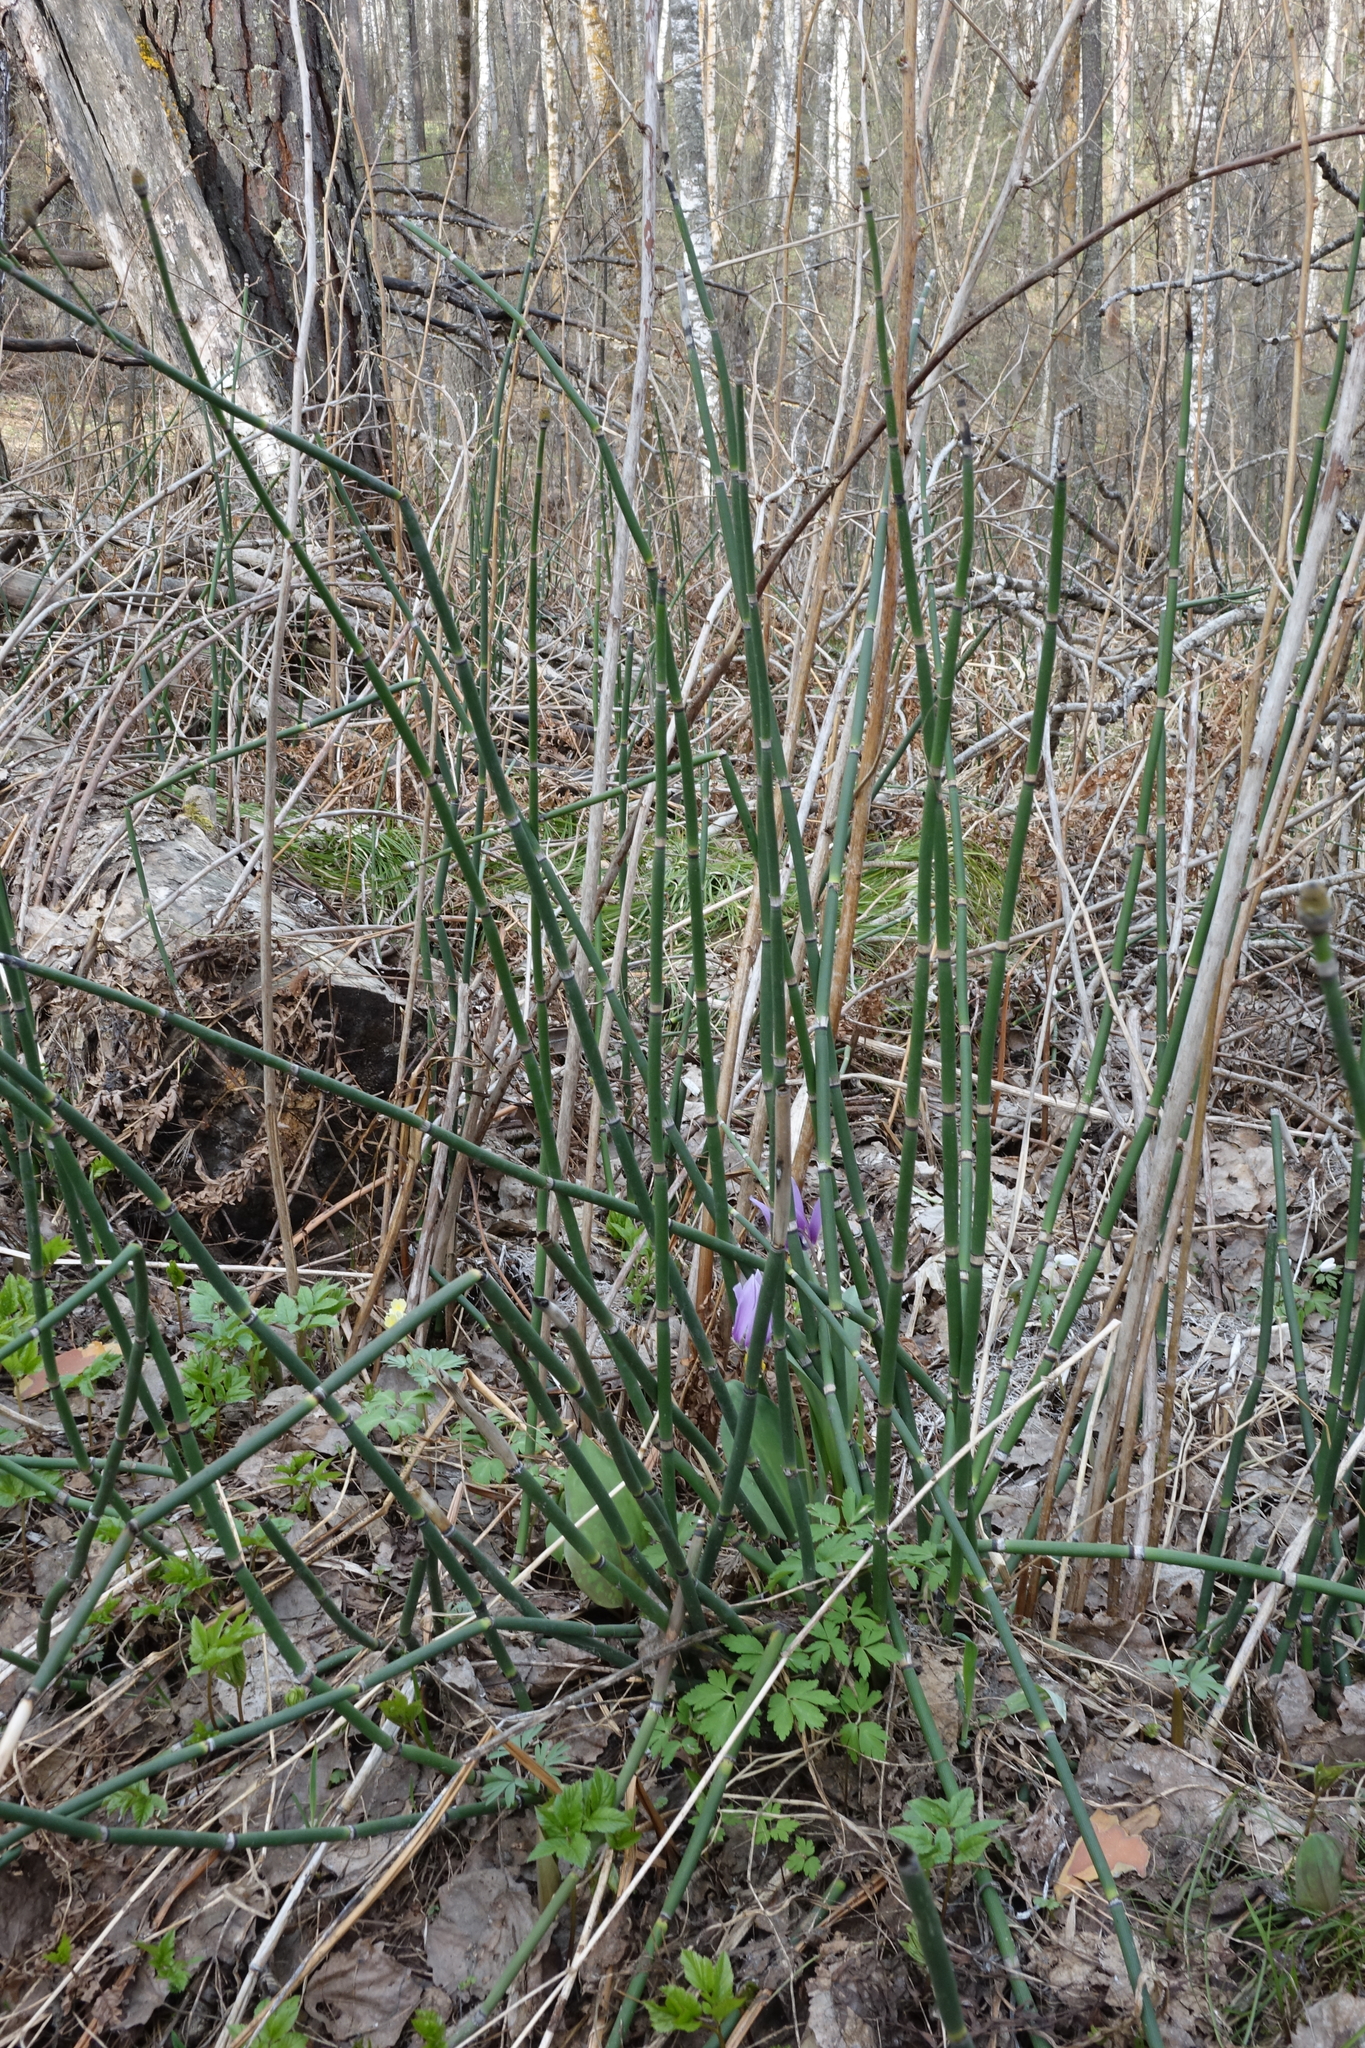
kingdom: Plantae
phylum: Tracheophyta
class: Polypodiopsida
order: Equisetales
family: Equisetaceae
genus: Equisetum
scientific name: Equisetum hyemale
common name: Rough horsetail
